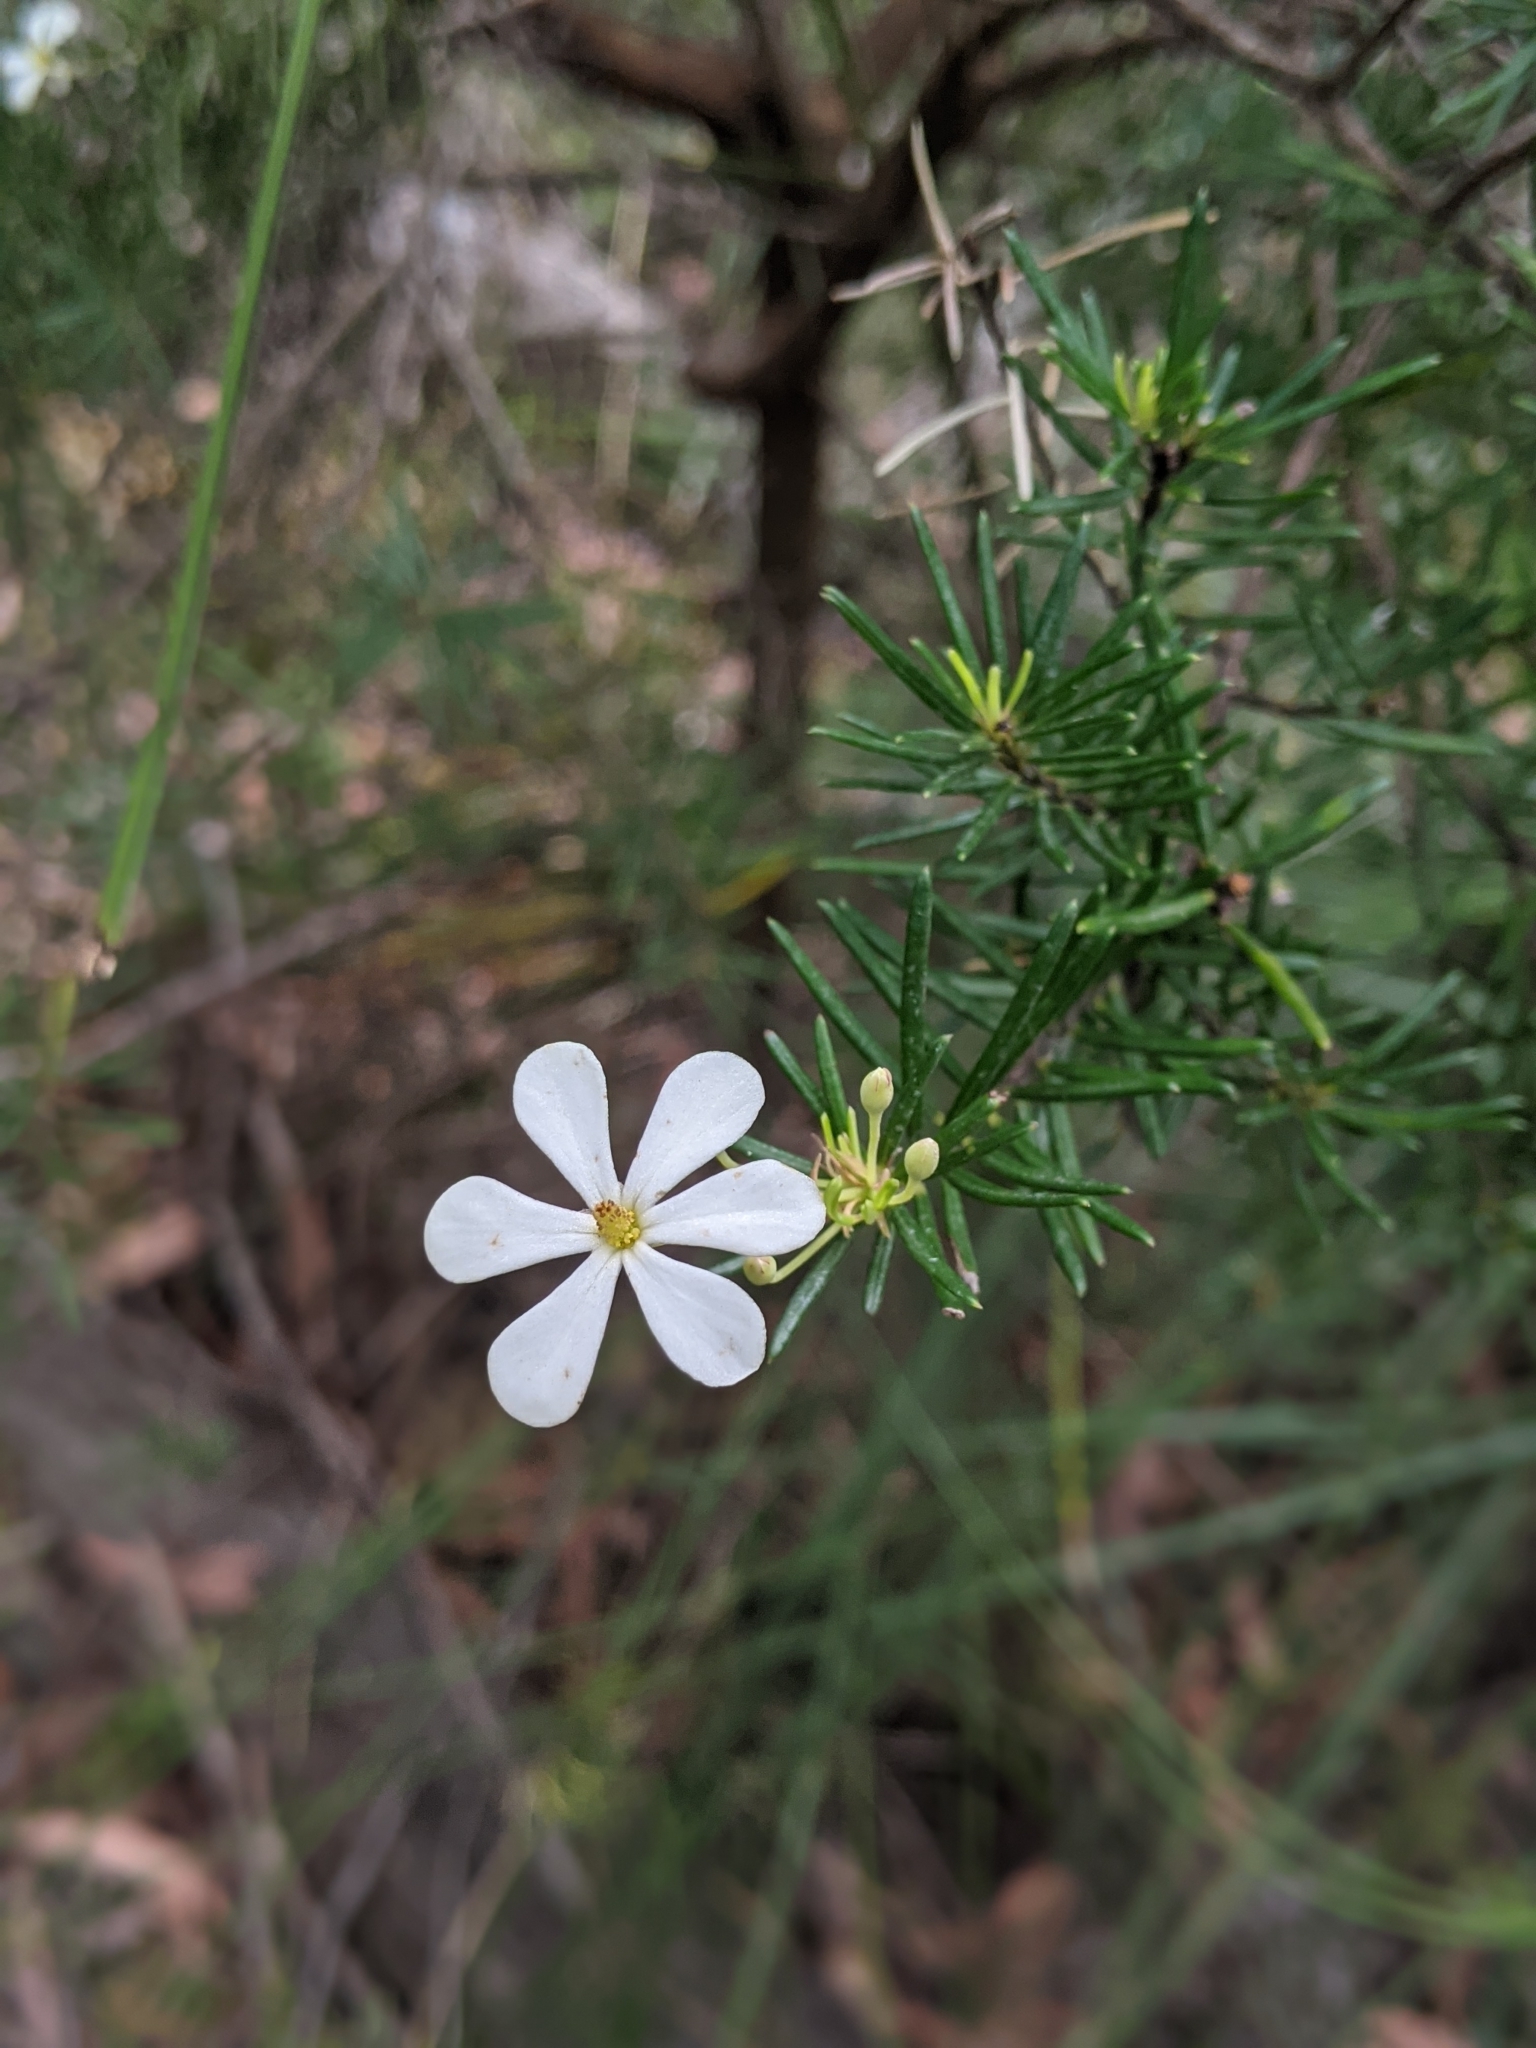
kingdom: Plantae
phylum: Tracheophyta
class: Magnoliopsida
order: Malpighiales
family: Euphorbiaceae
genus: Ricinocarpos
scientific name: Ricinocarpos pinifolius
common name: Weddingbush
